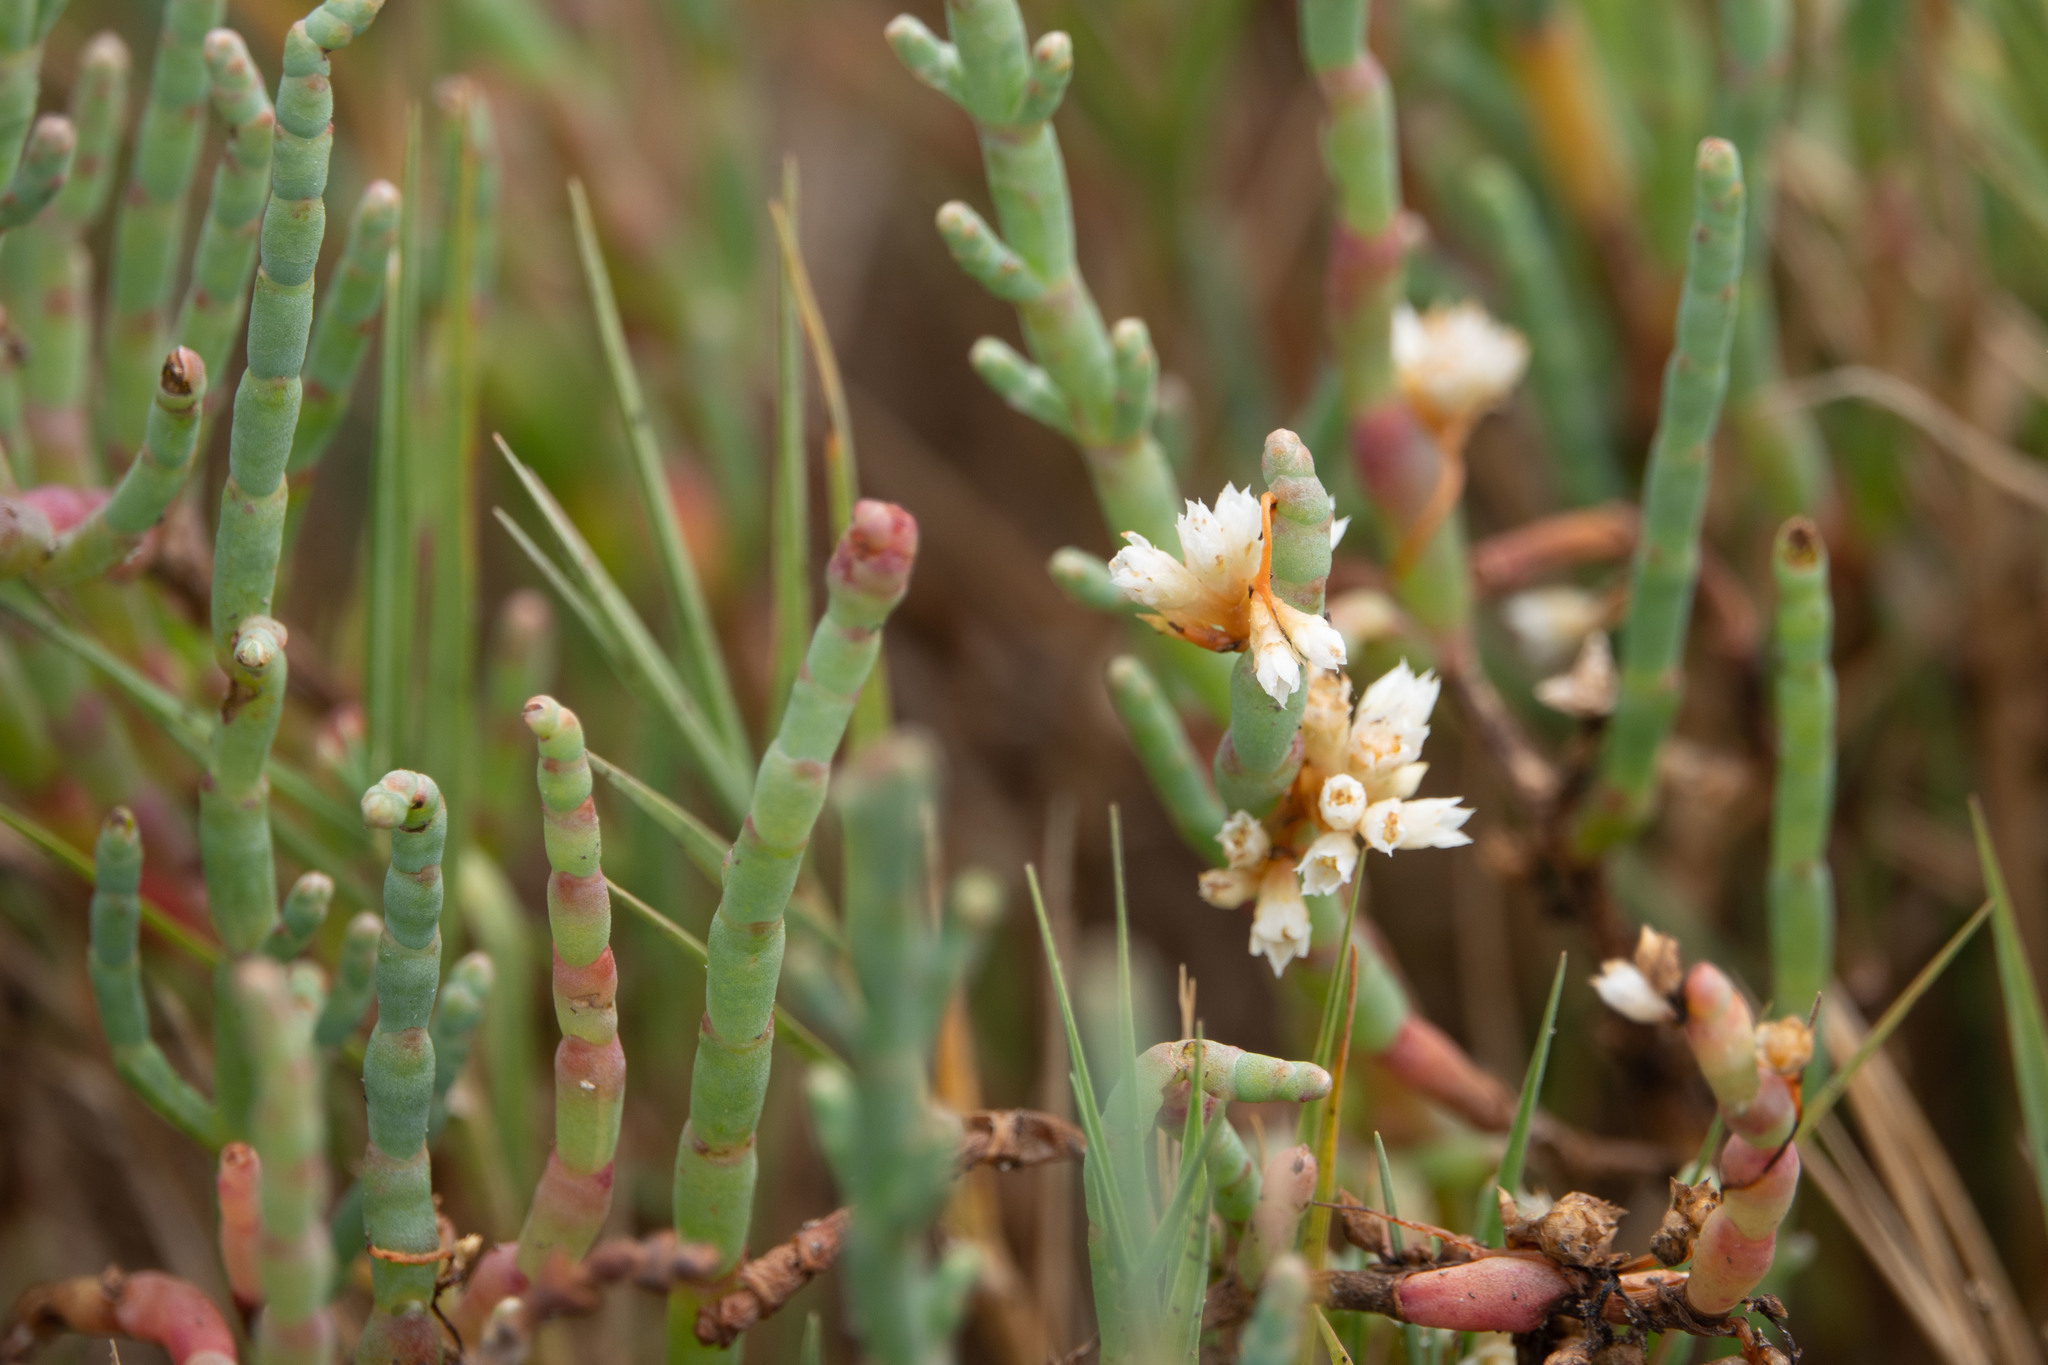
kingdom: Plantae
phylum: Tracheophyta
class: Magnoliopsida
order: Caryophyllales
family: Amaranthaceae
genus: Salicornia
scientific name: Salicornia pacifica
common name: Pacific glasswort
